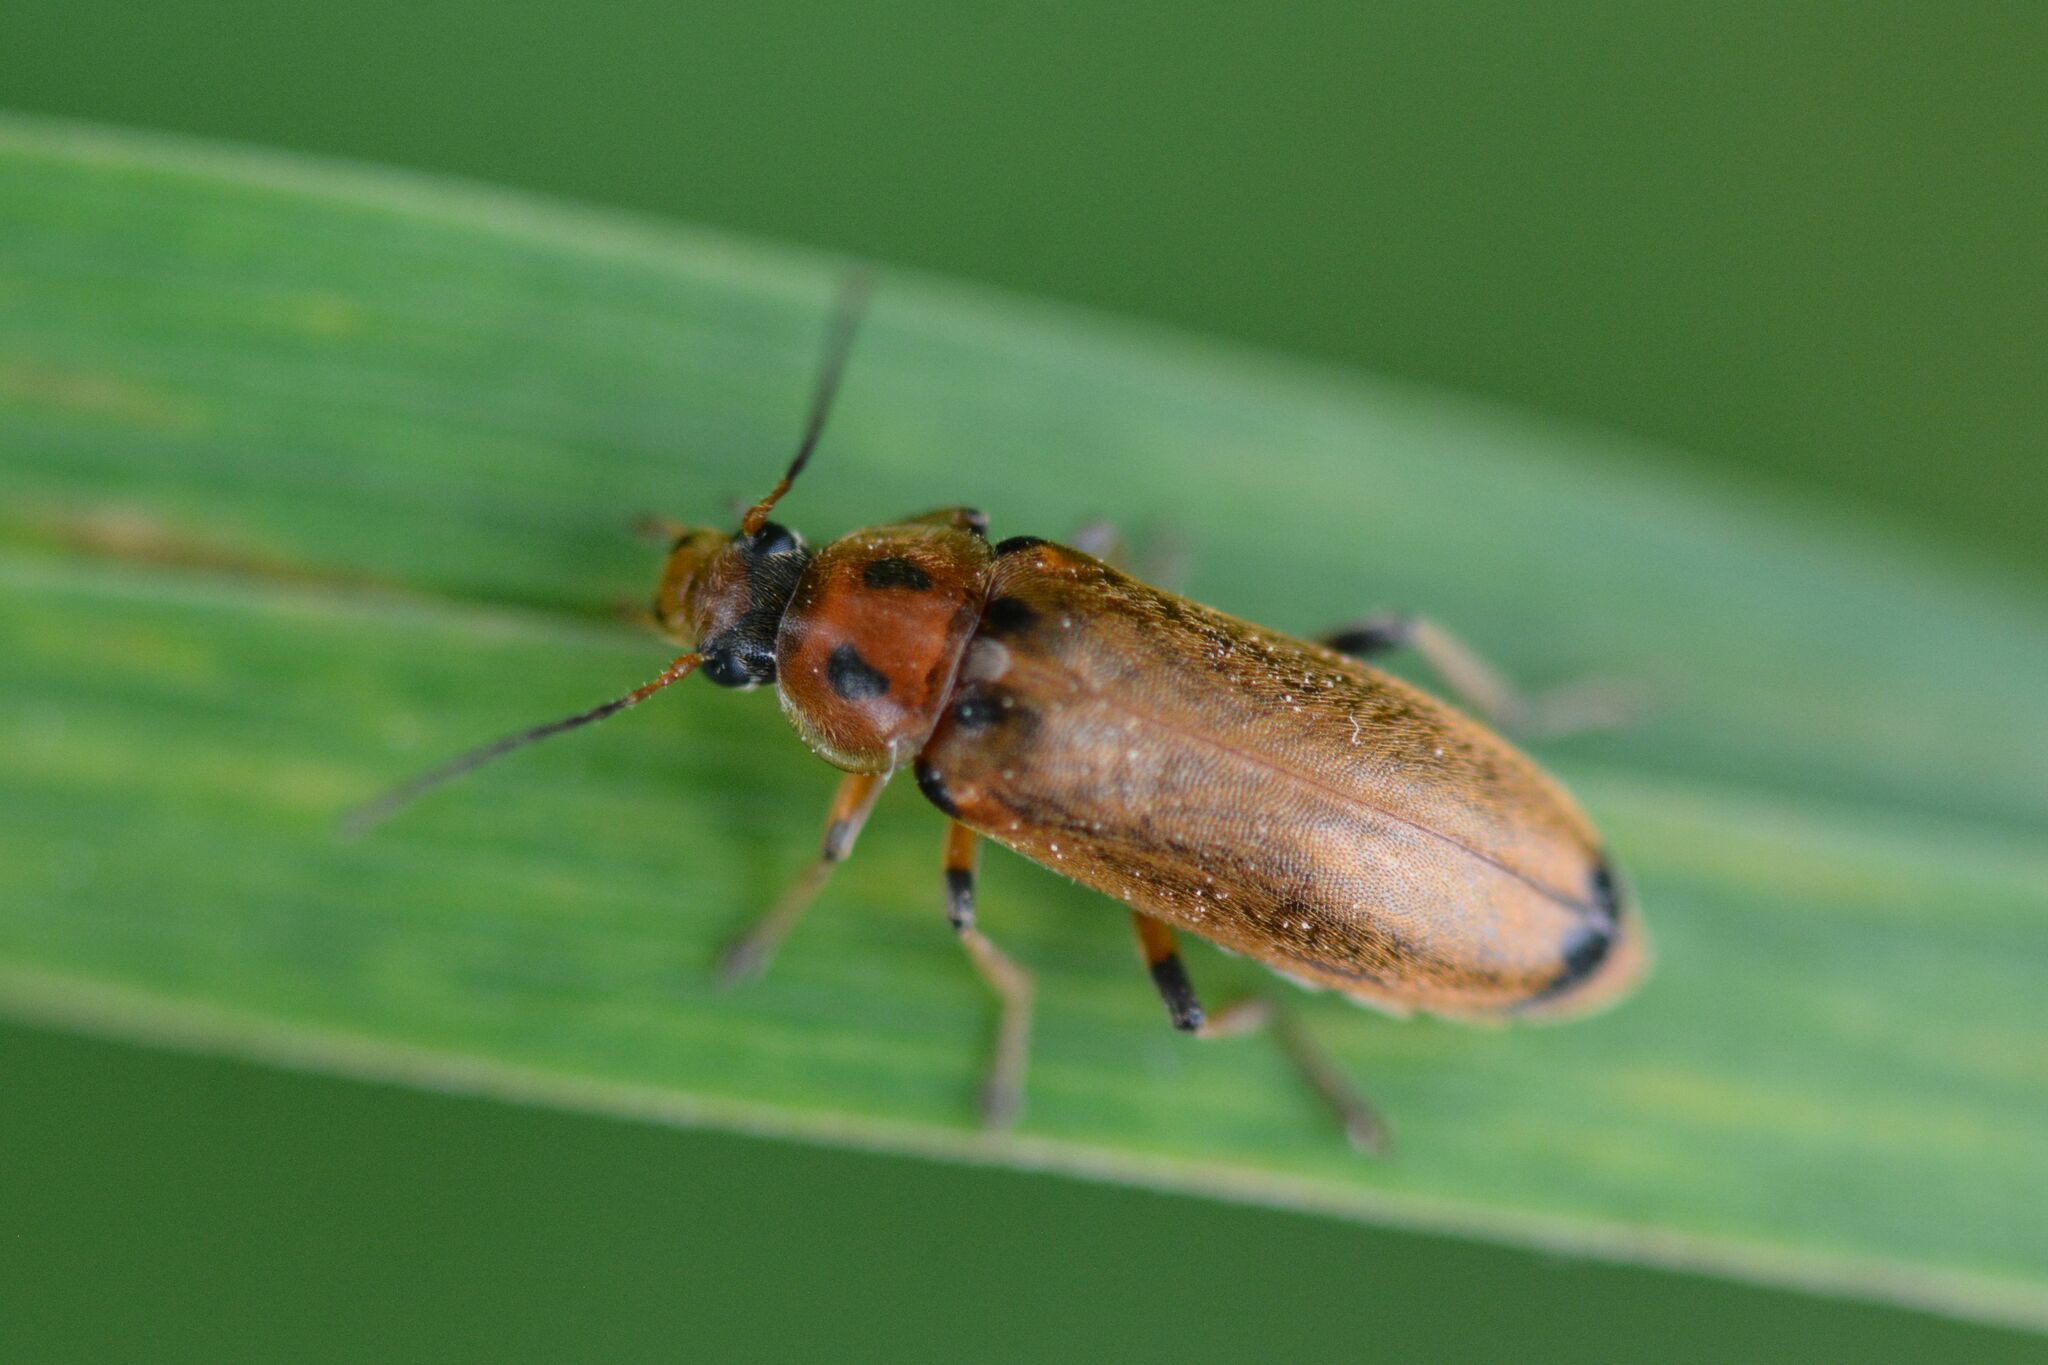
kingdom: Animalia
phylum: Arthropoda
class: Insecta
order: Coleoptera
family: Melandryidae
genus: Osphya
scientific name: Osphya bipunctata
